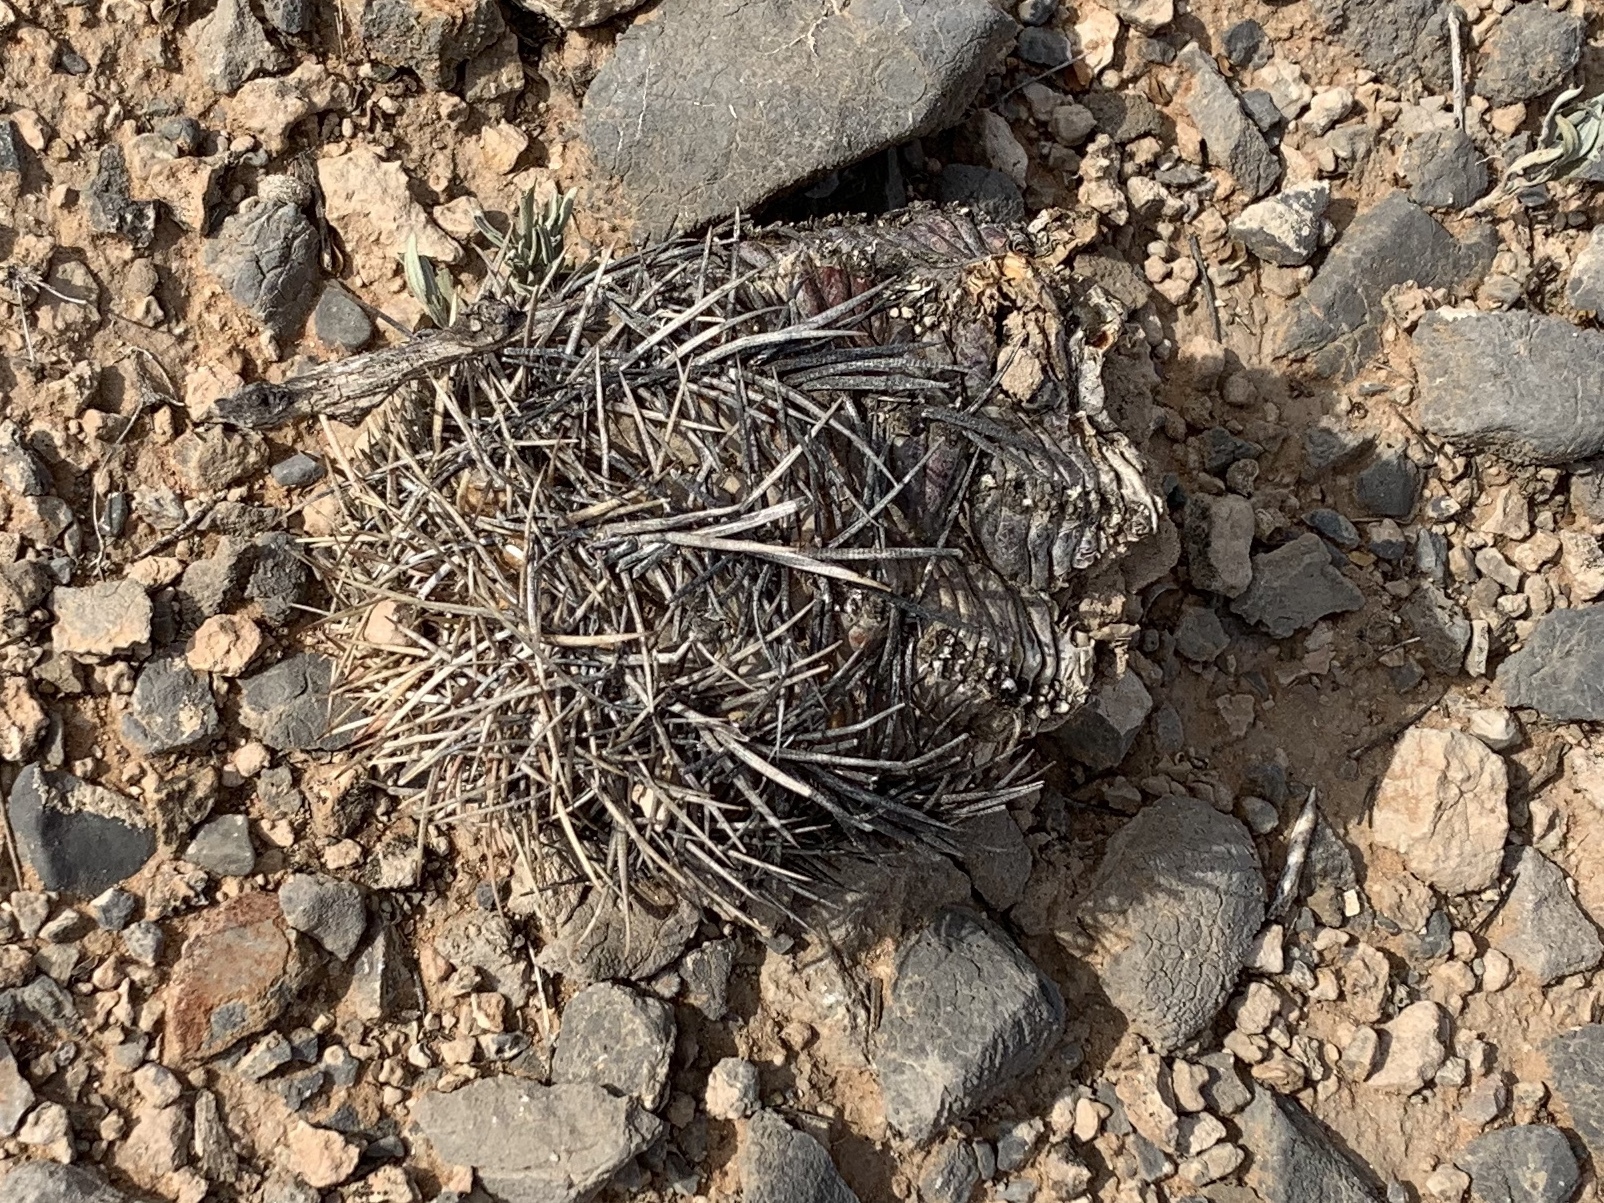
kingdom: Plantae
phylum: Tracheophyta
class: Magnoliopsida
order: Caryophyllales
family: Cactaceae
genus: Echinocactus
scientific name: Echinocactus horizonthalonius
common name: Devilshead
